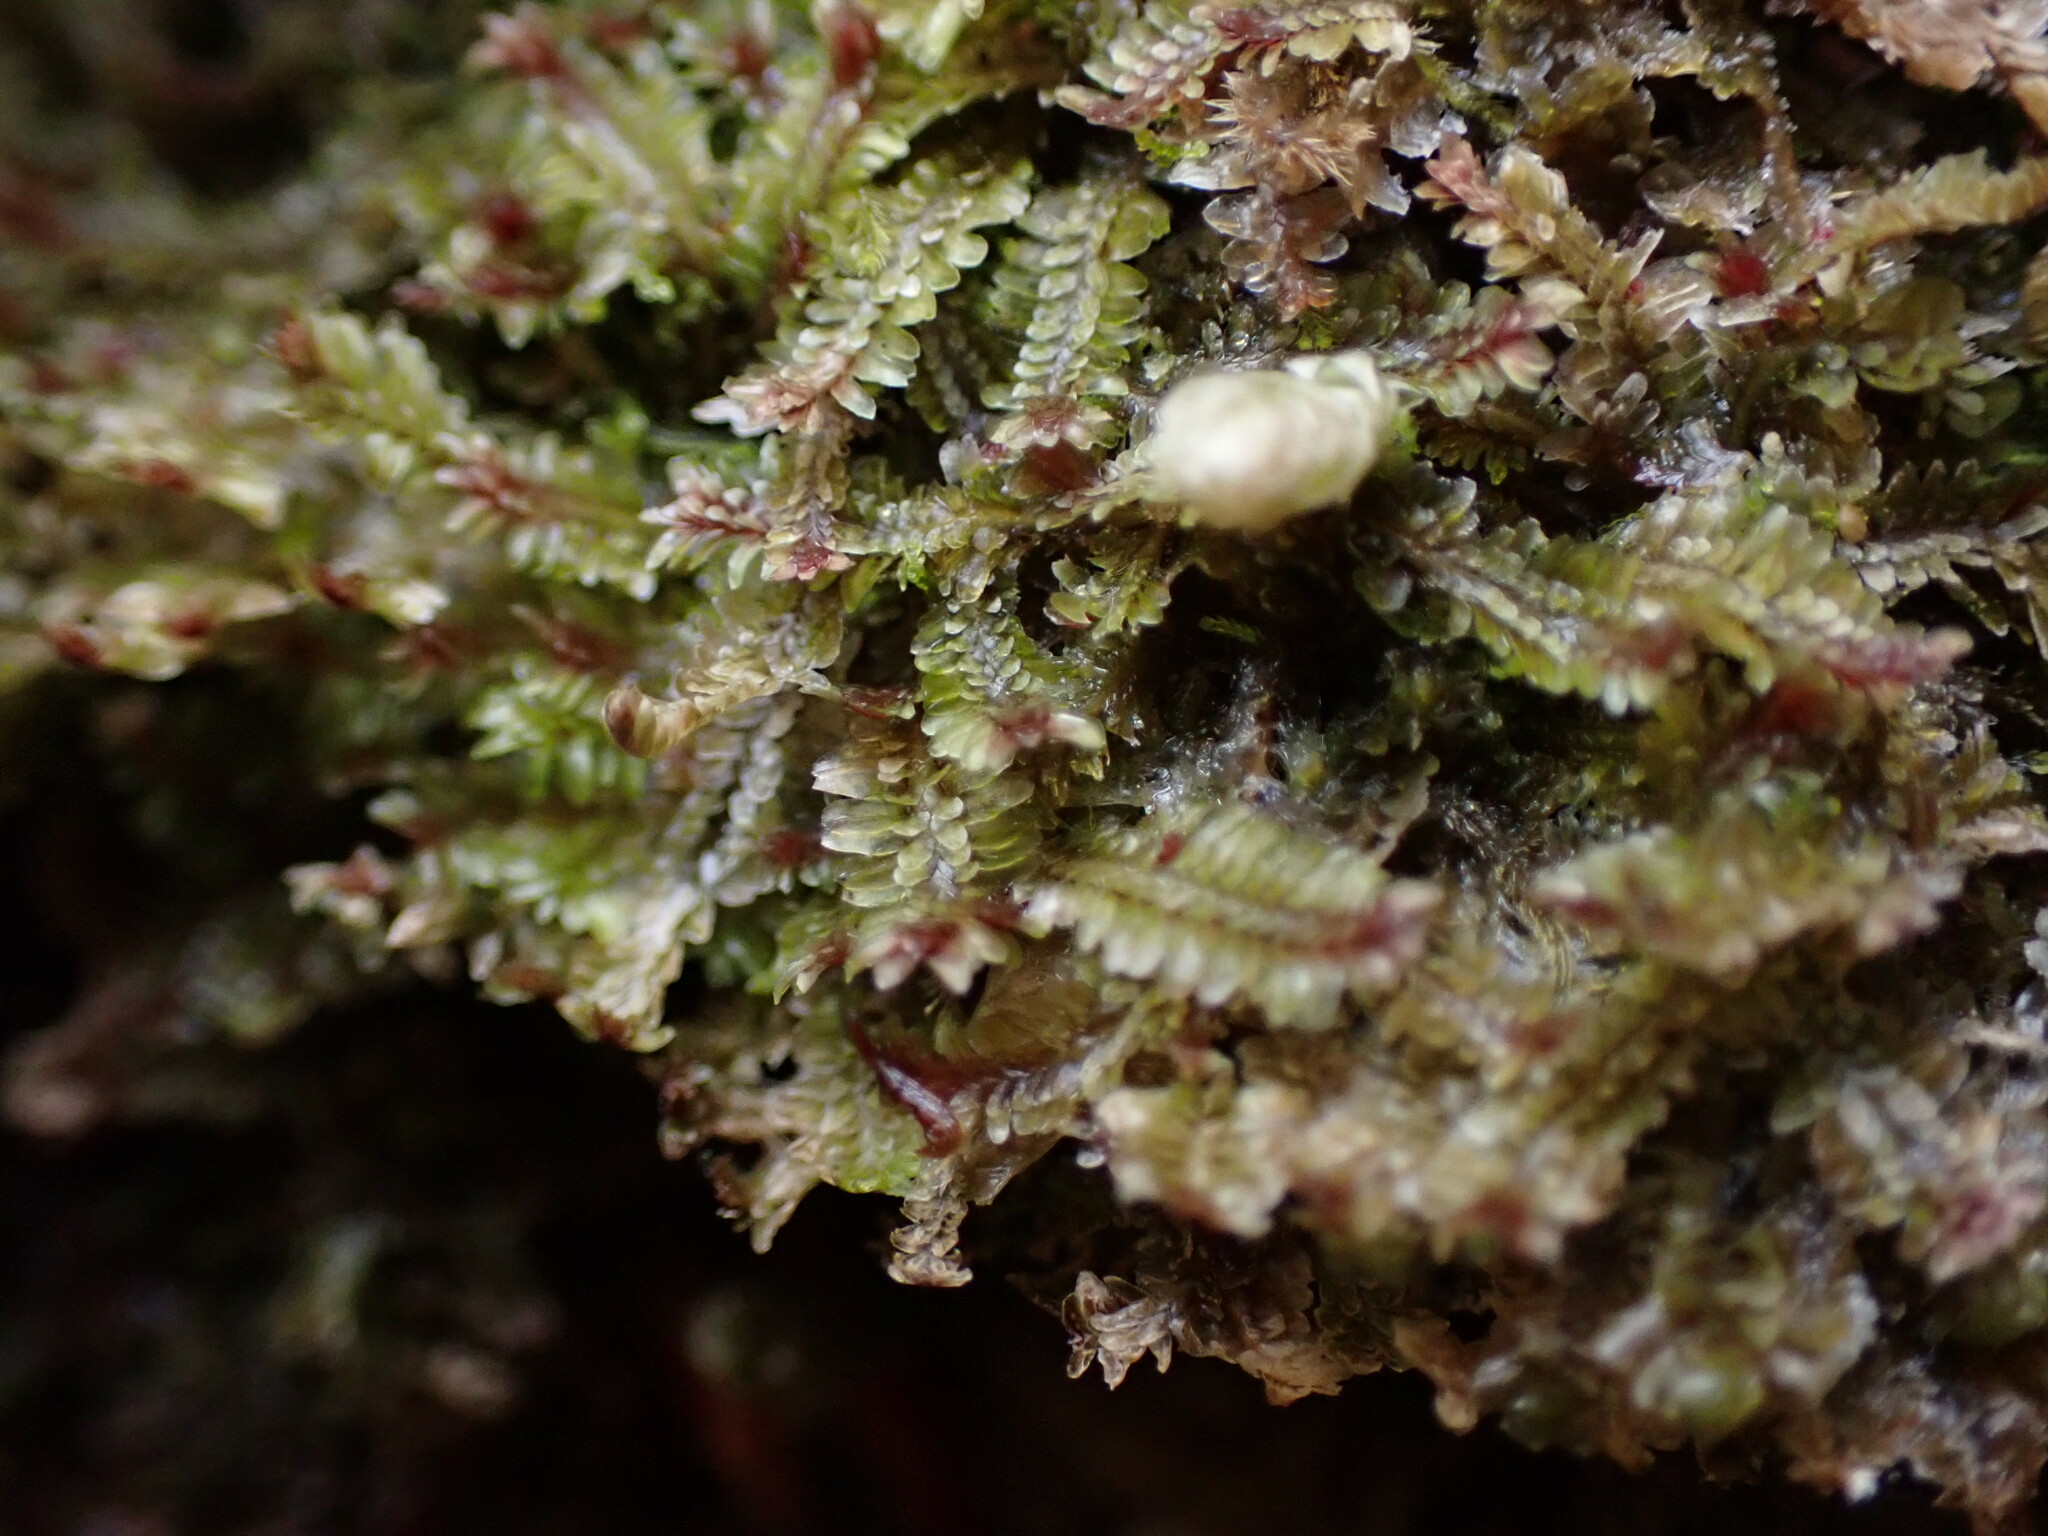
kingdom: Plantae
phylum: Marchantiophyta
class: Jungermanniopsida
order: Jungermanniales
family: Scapaniaceae
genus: Diplophyllum
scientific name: Diplophyllum albicans
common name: White earwort
